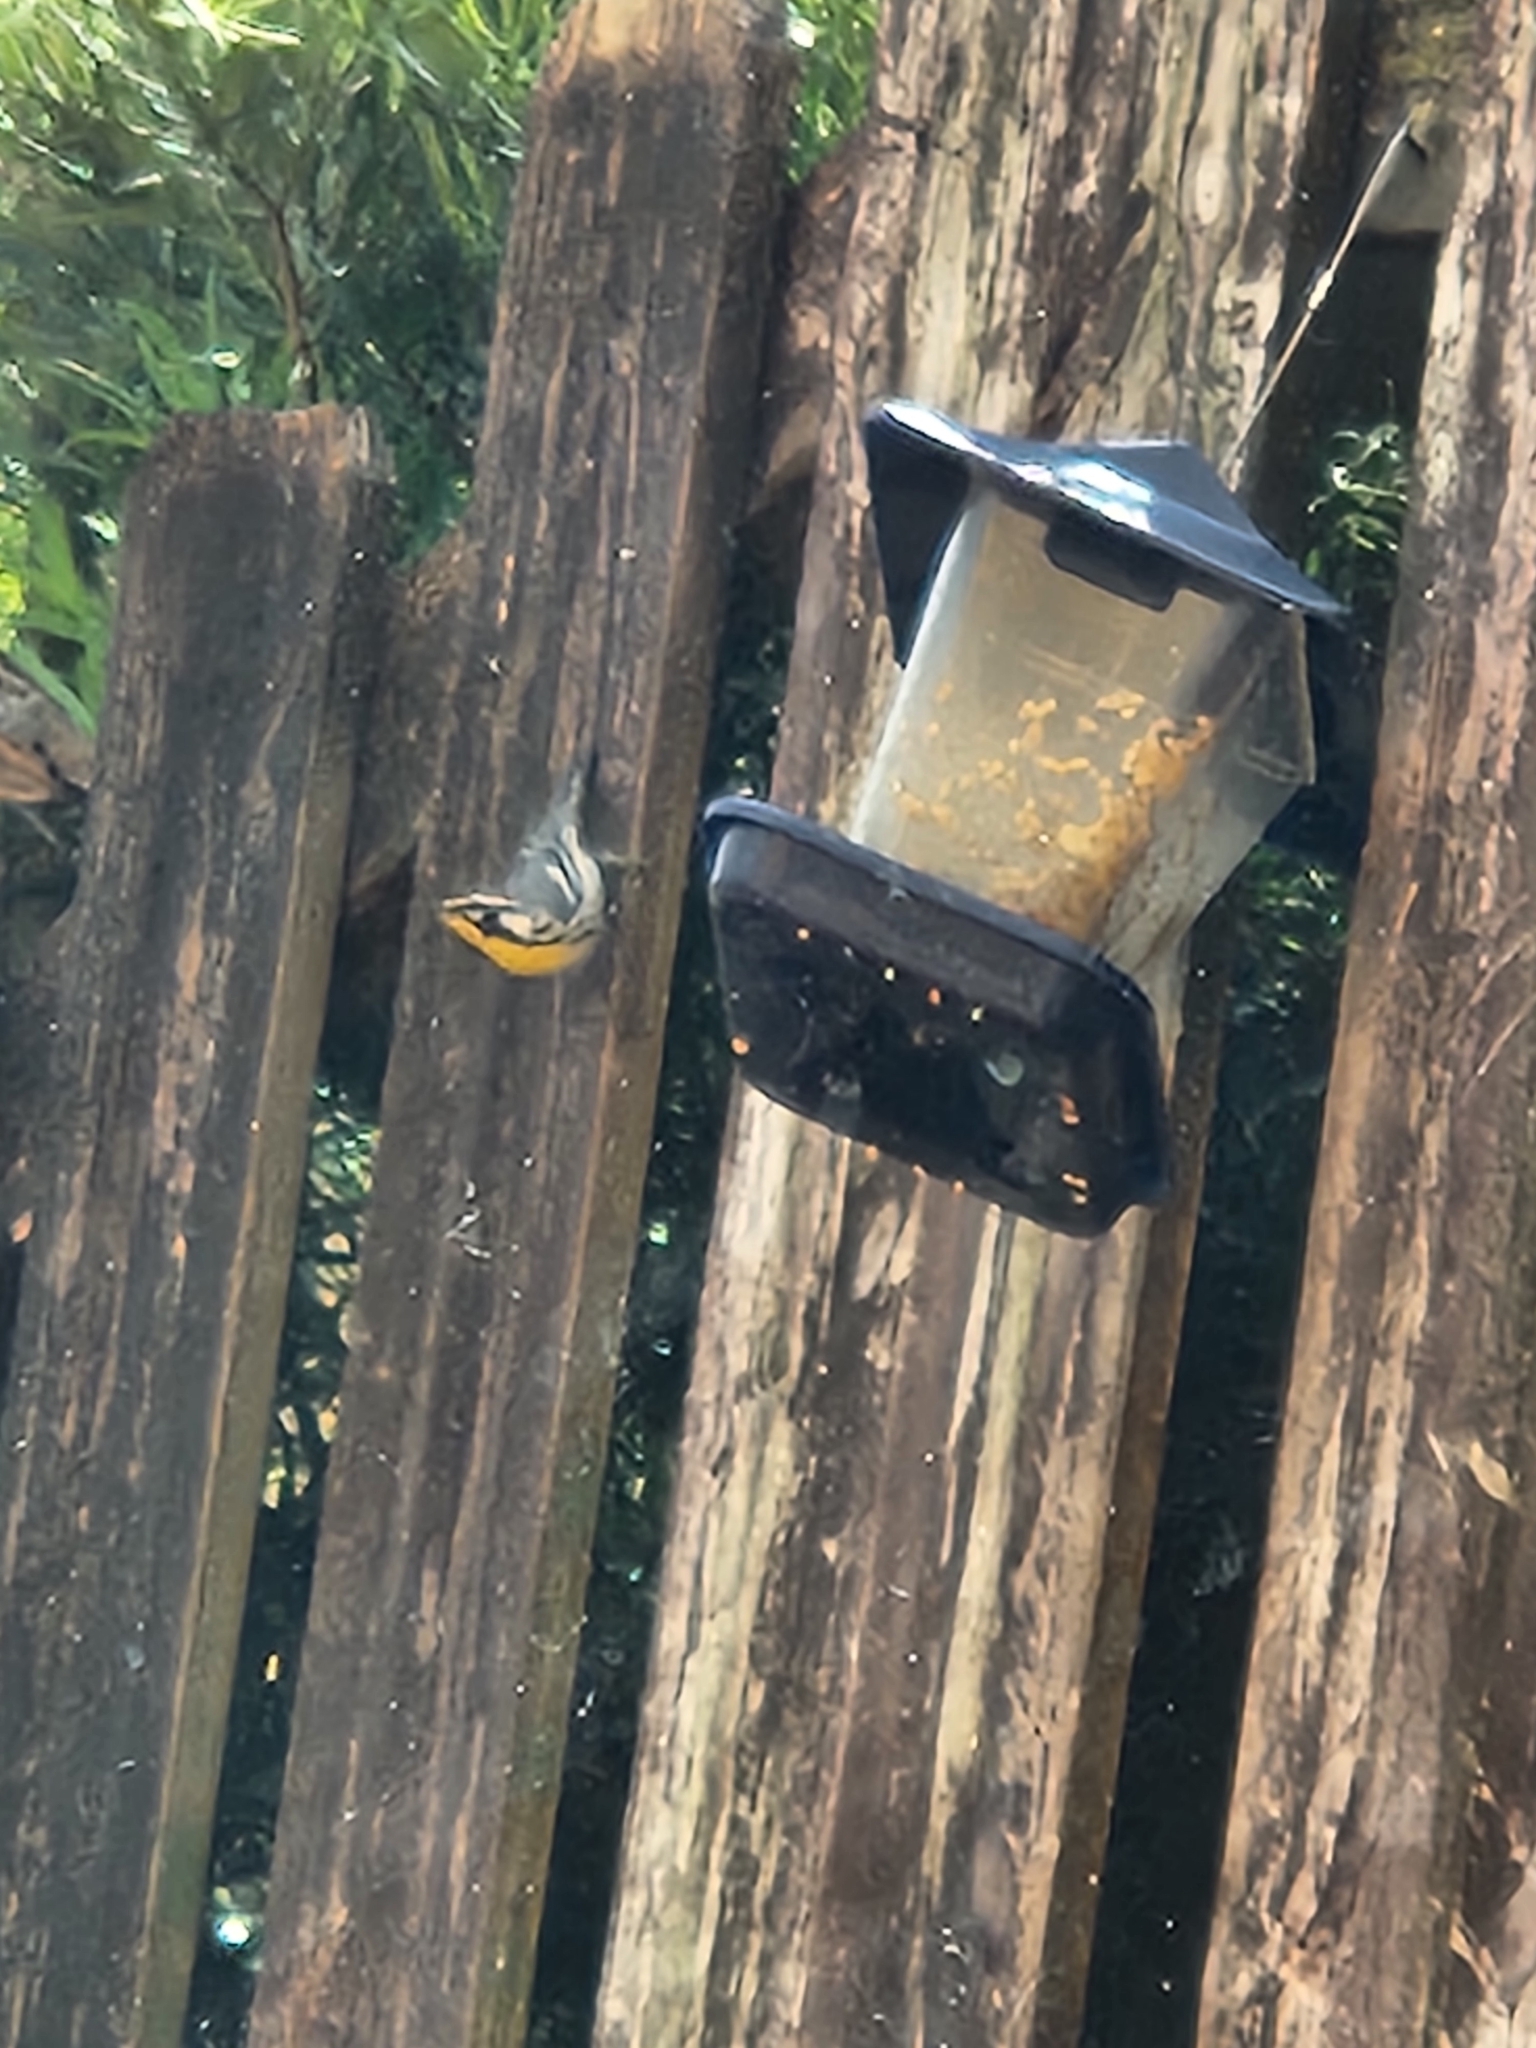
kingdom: Animalia
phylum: Chordata
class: Aves
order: Passeriformes
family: Parulidae
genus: Setophaga
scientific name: Setophaga dominica
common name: Yellow-throated warbler
